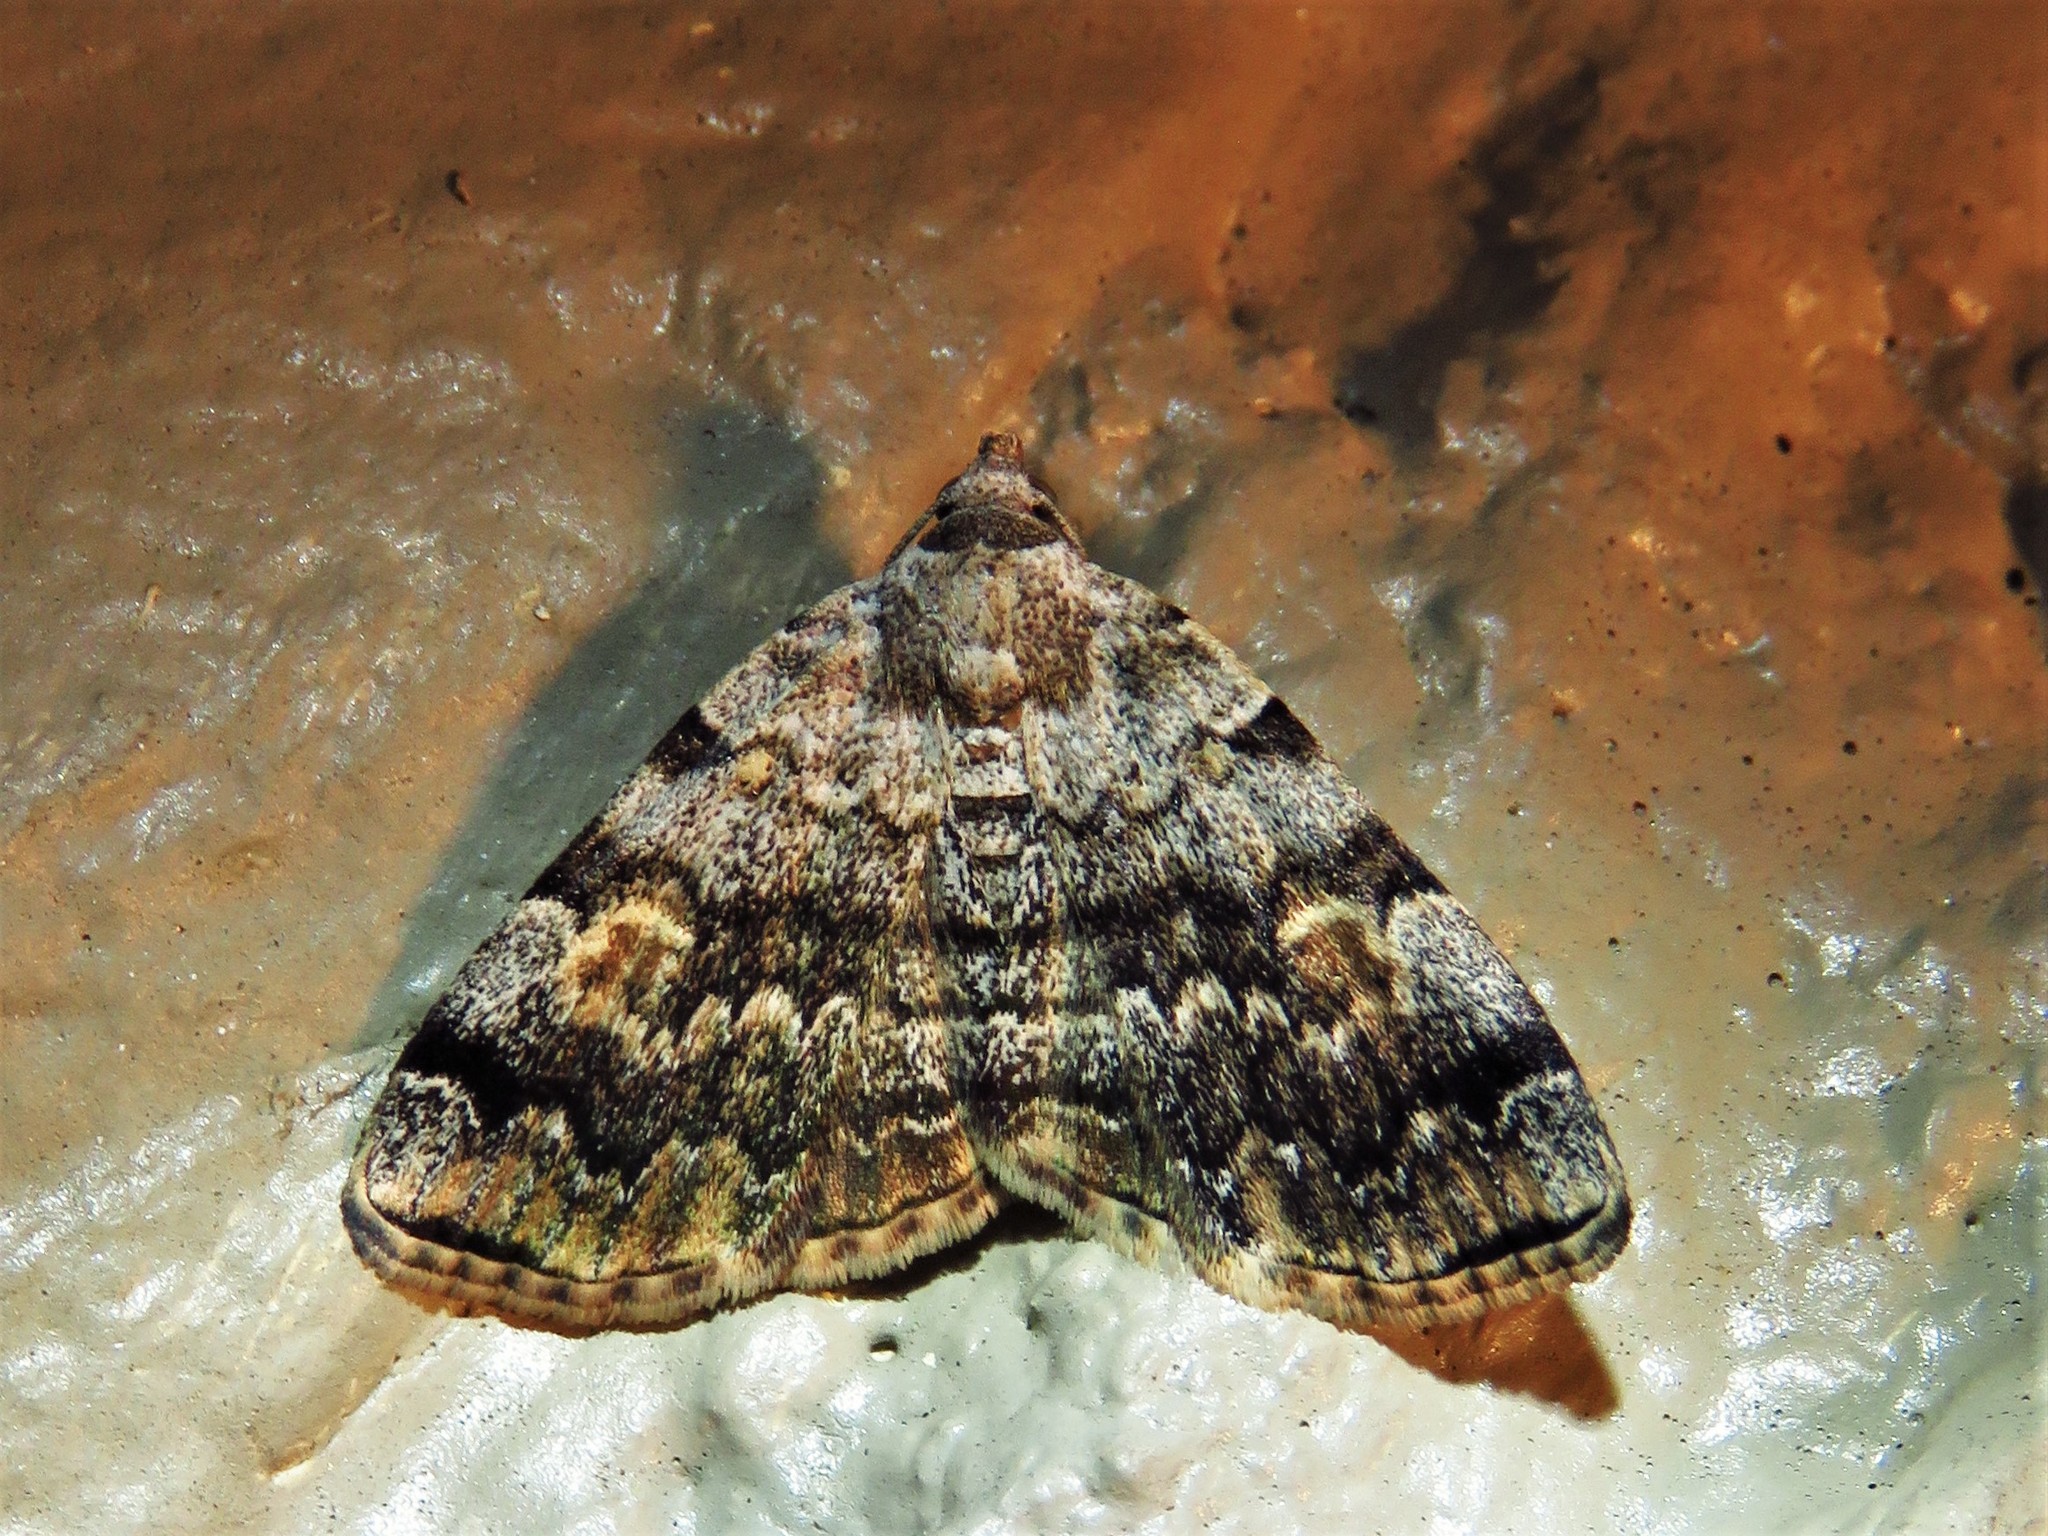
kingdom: Animalia
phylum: Arthropoda
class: Insecta
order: Lepidoptera
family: Erebidae
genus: Idia
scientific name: Idia americalis
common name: American idia moth
